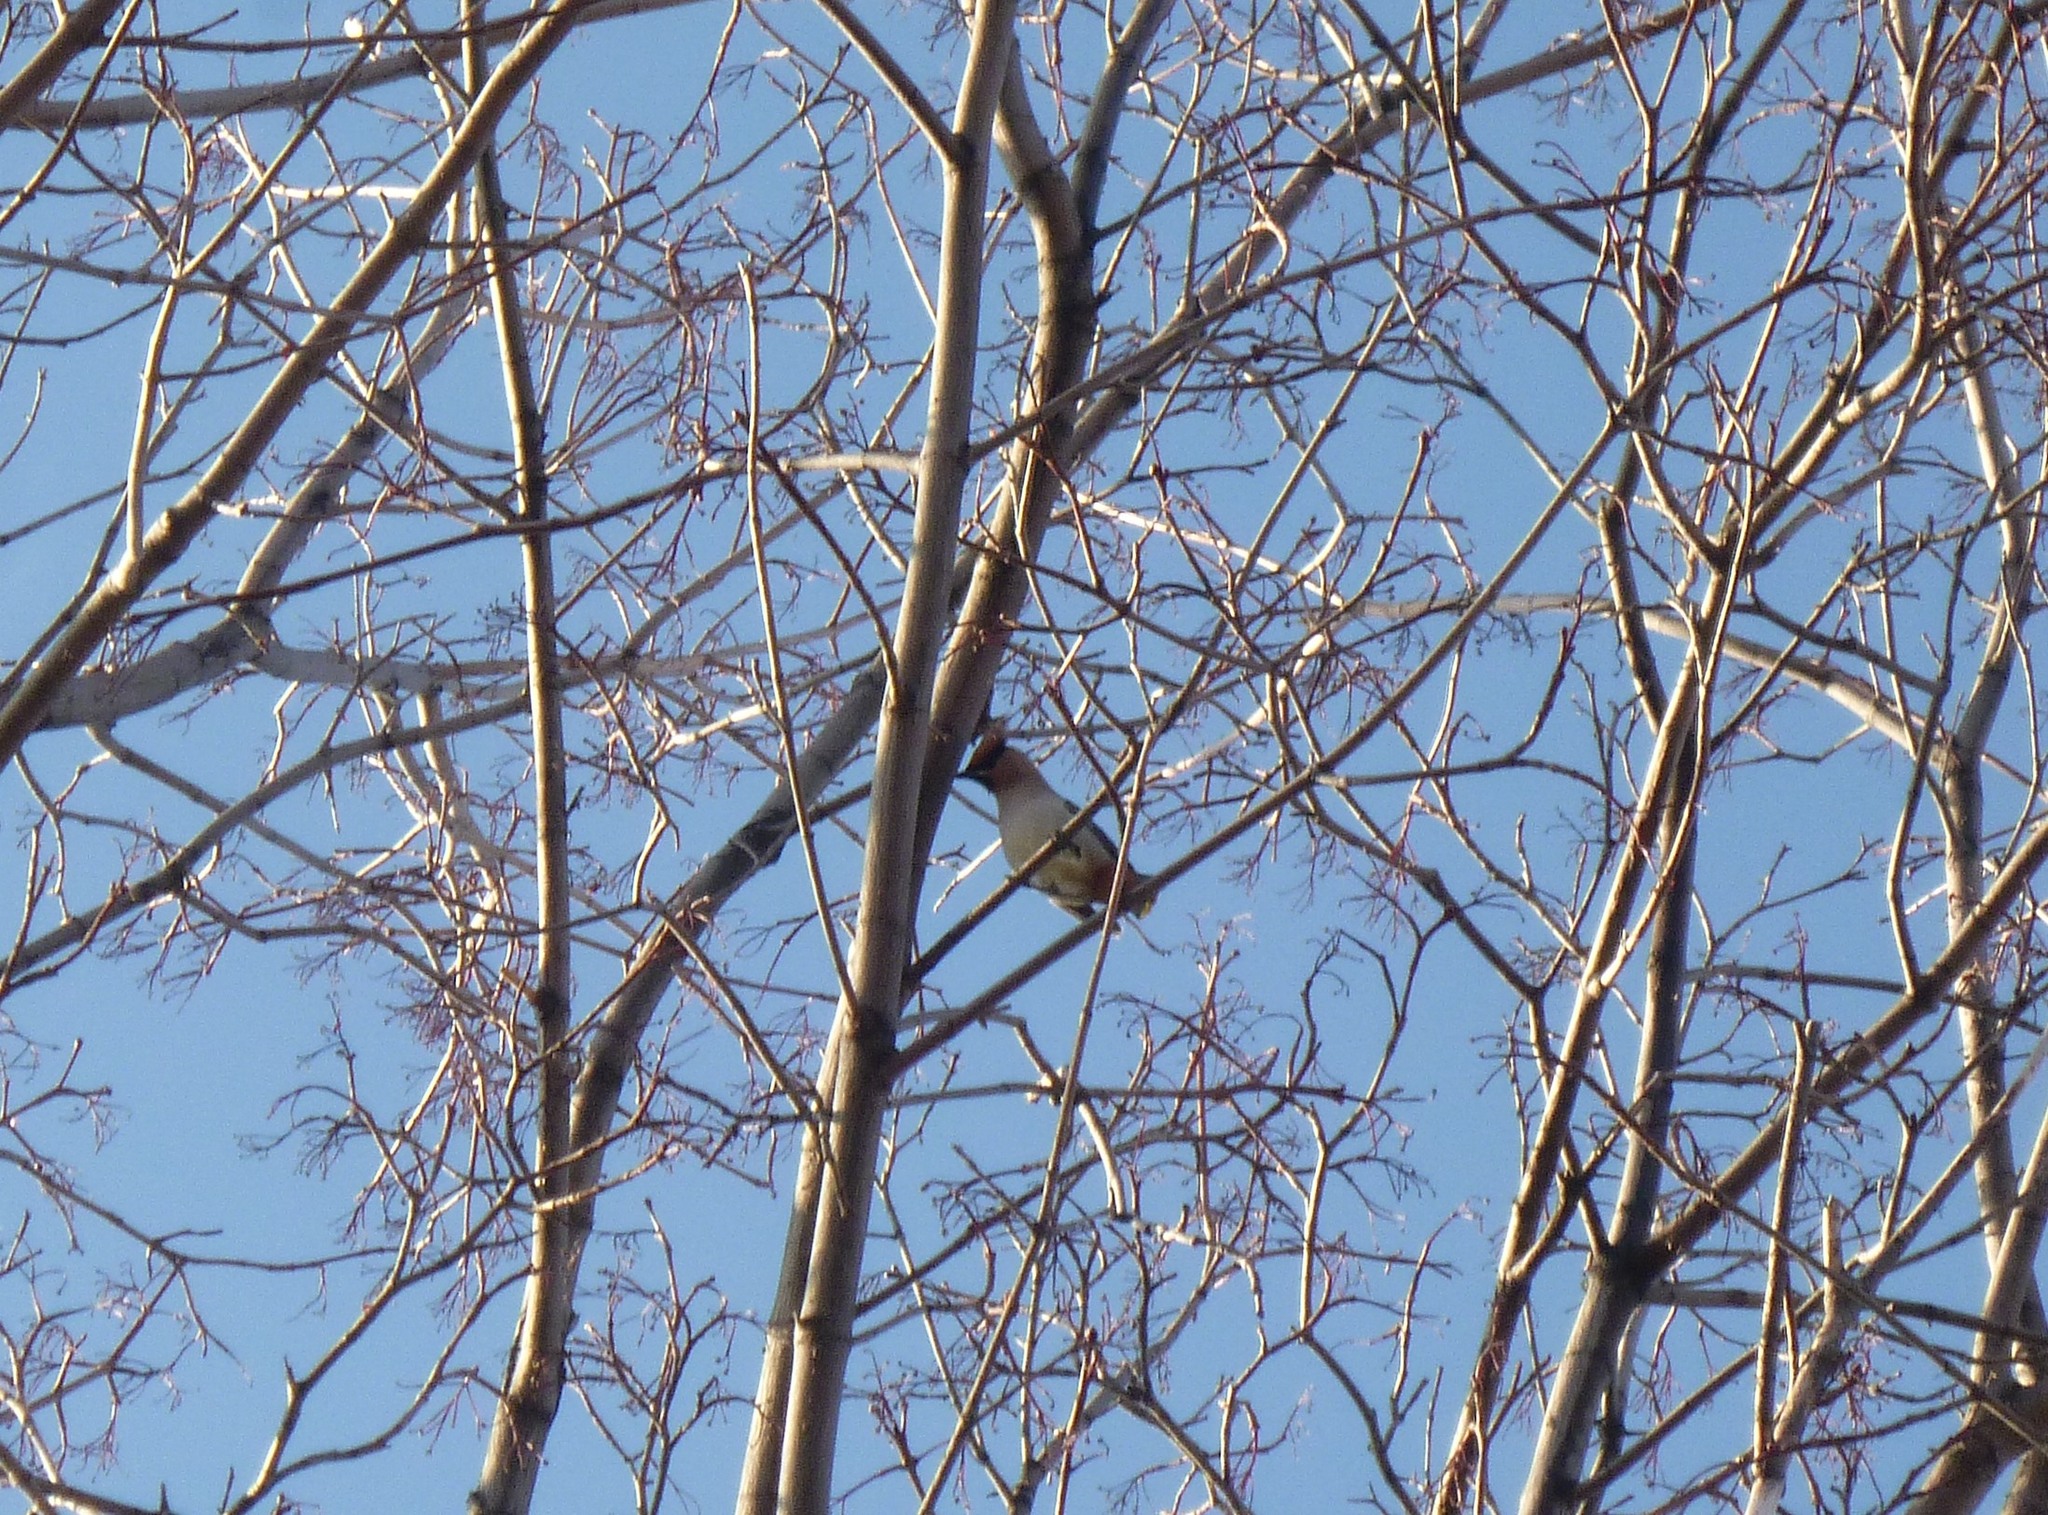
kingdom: Animalia
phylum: Chordata
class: Aves
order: Passeriformes
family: Bombycillidae
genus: Bombycilla
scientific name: Bombycilla garrulus
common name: Bohemian waxwing
